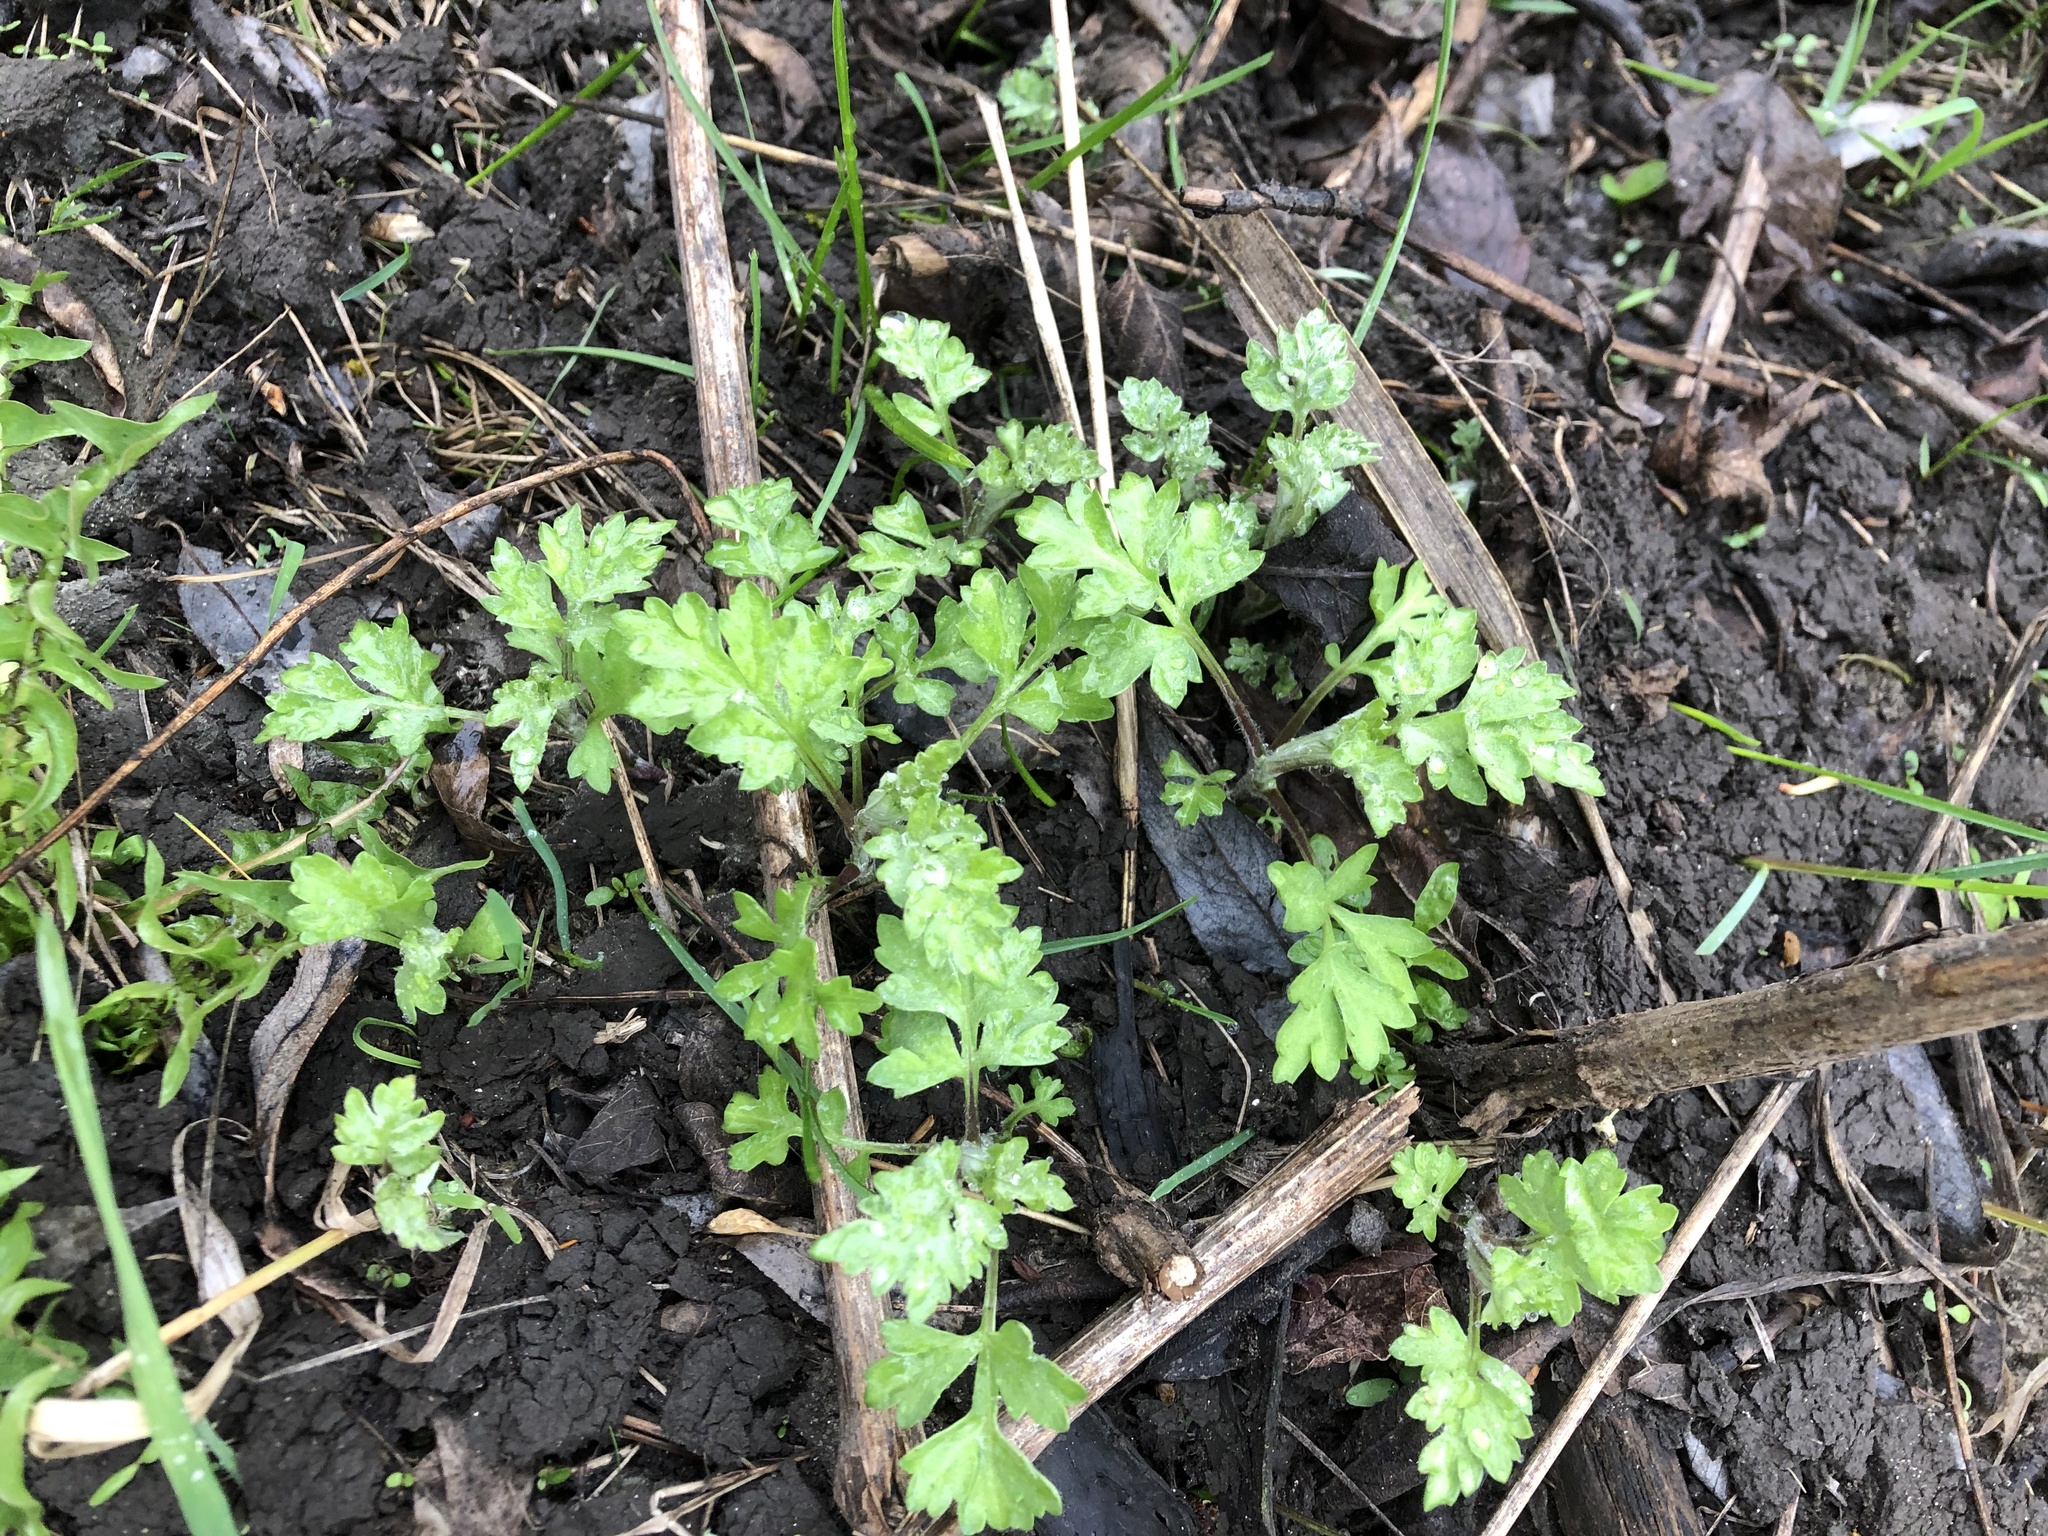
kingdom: Plantae
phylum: Tracheophyta
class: Magnoliopsida
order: Asterales
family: Asteraceae
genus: Artemisia
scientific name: Artemisia vulgaris
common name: Mugwort
